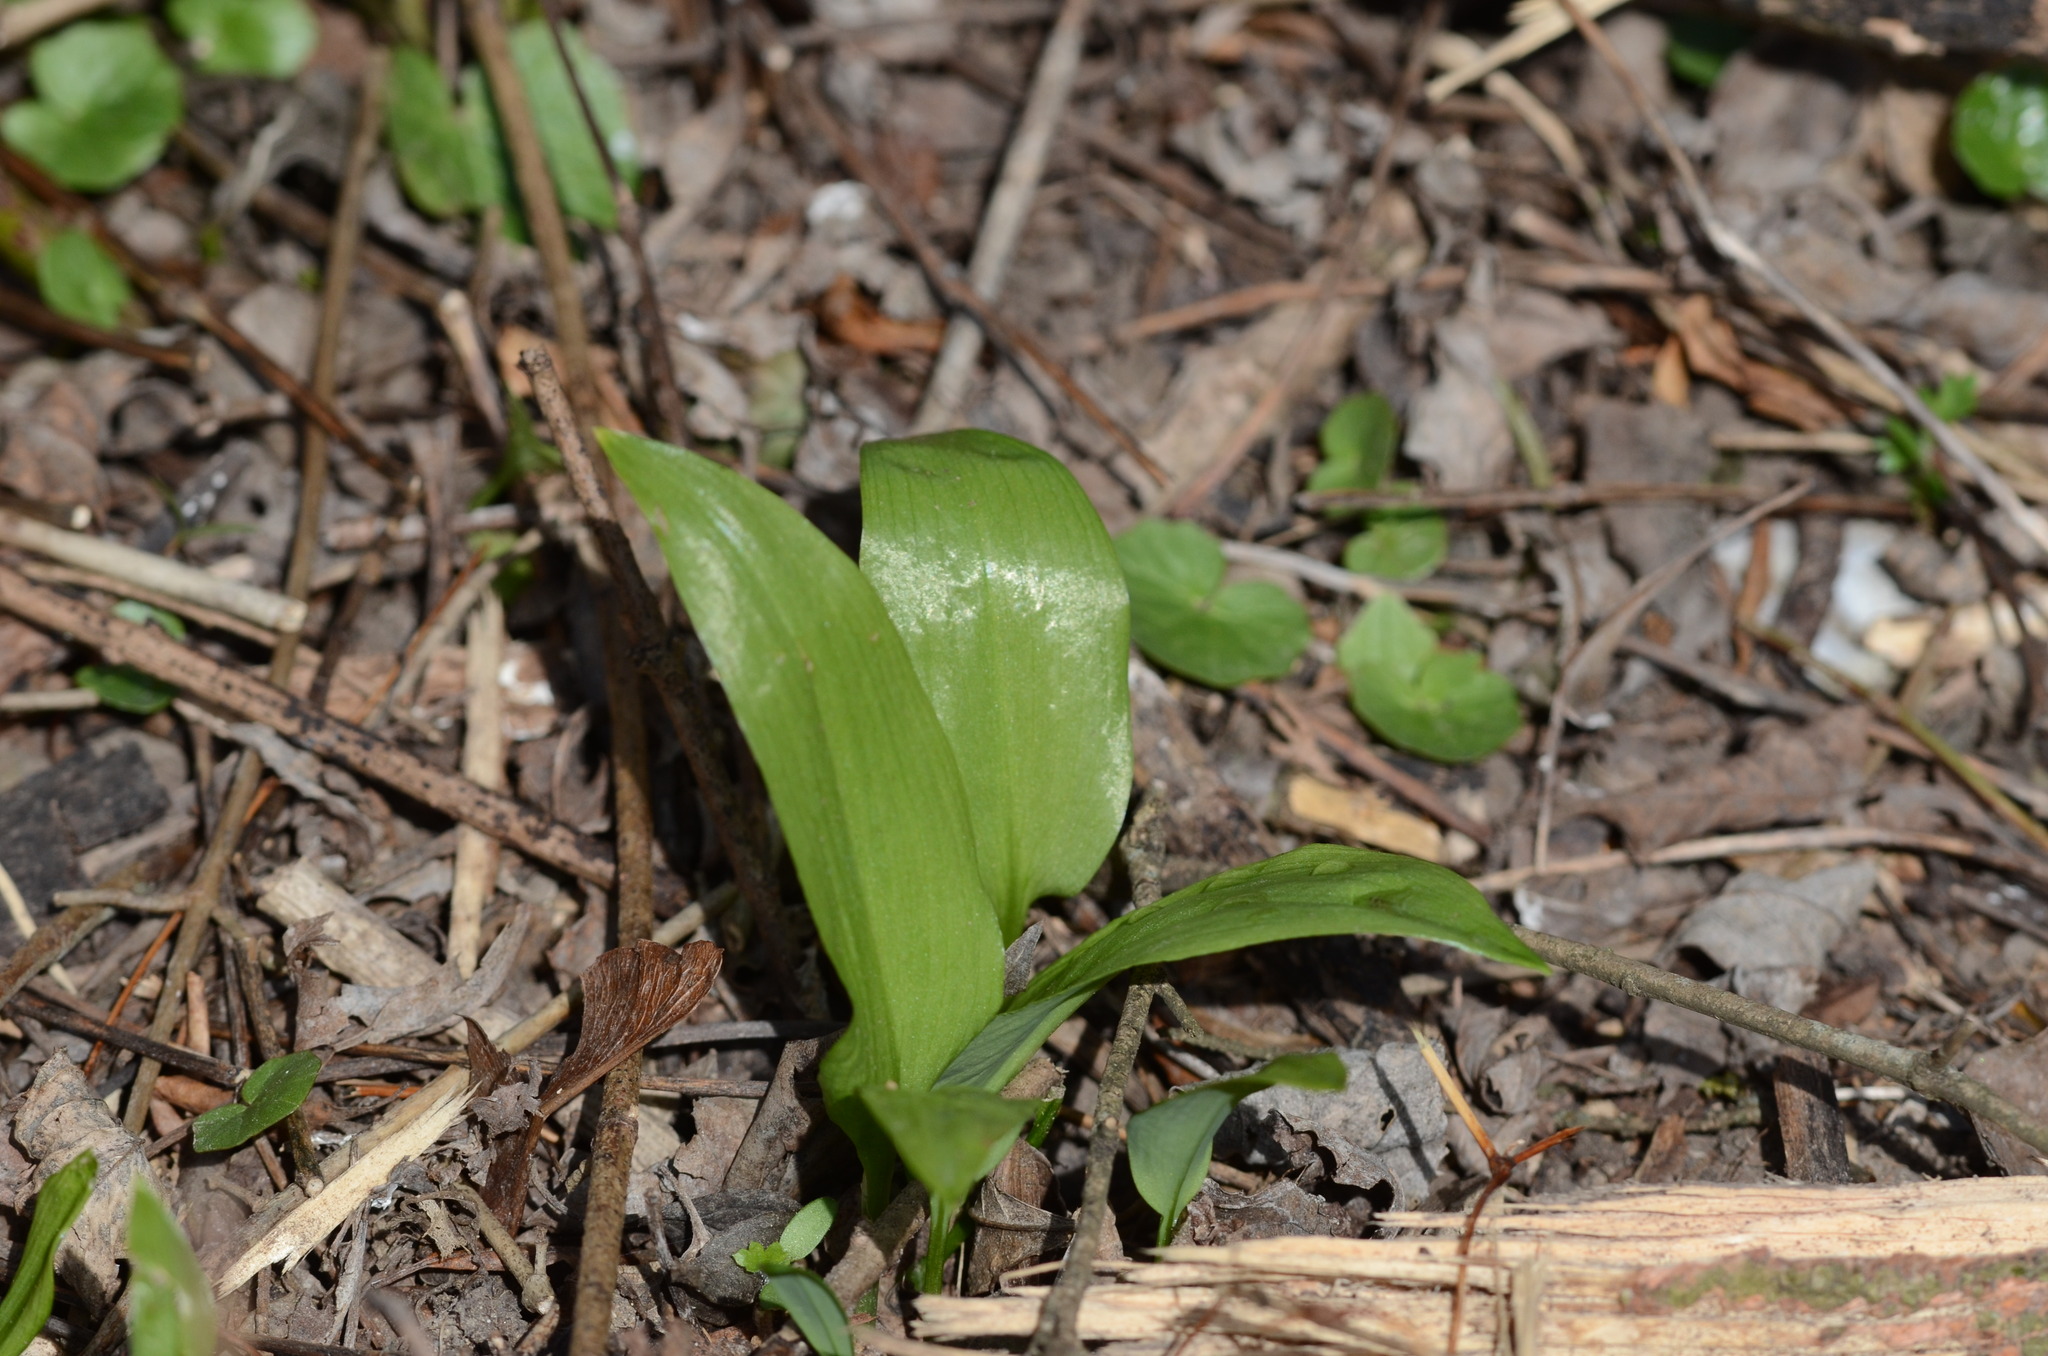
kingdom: Plantae
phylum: Tracheophyta
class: Liliopsida
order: Asparagales
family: Amaryllidaceae
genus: Allium
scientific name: Allium ursinum
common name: Ramsons
